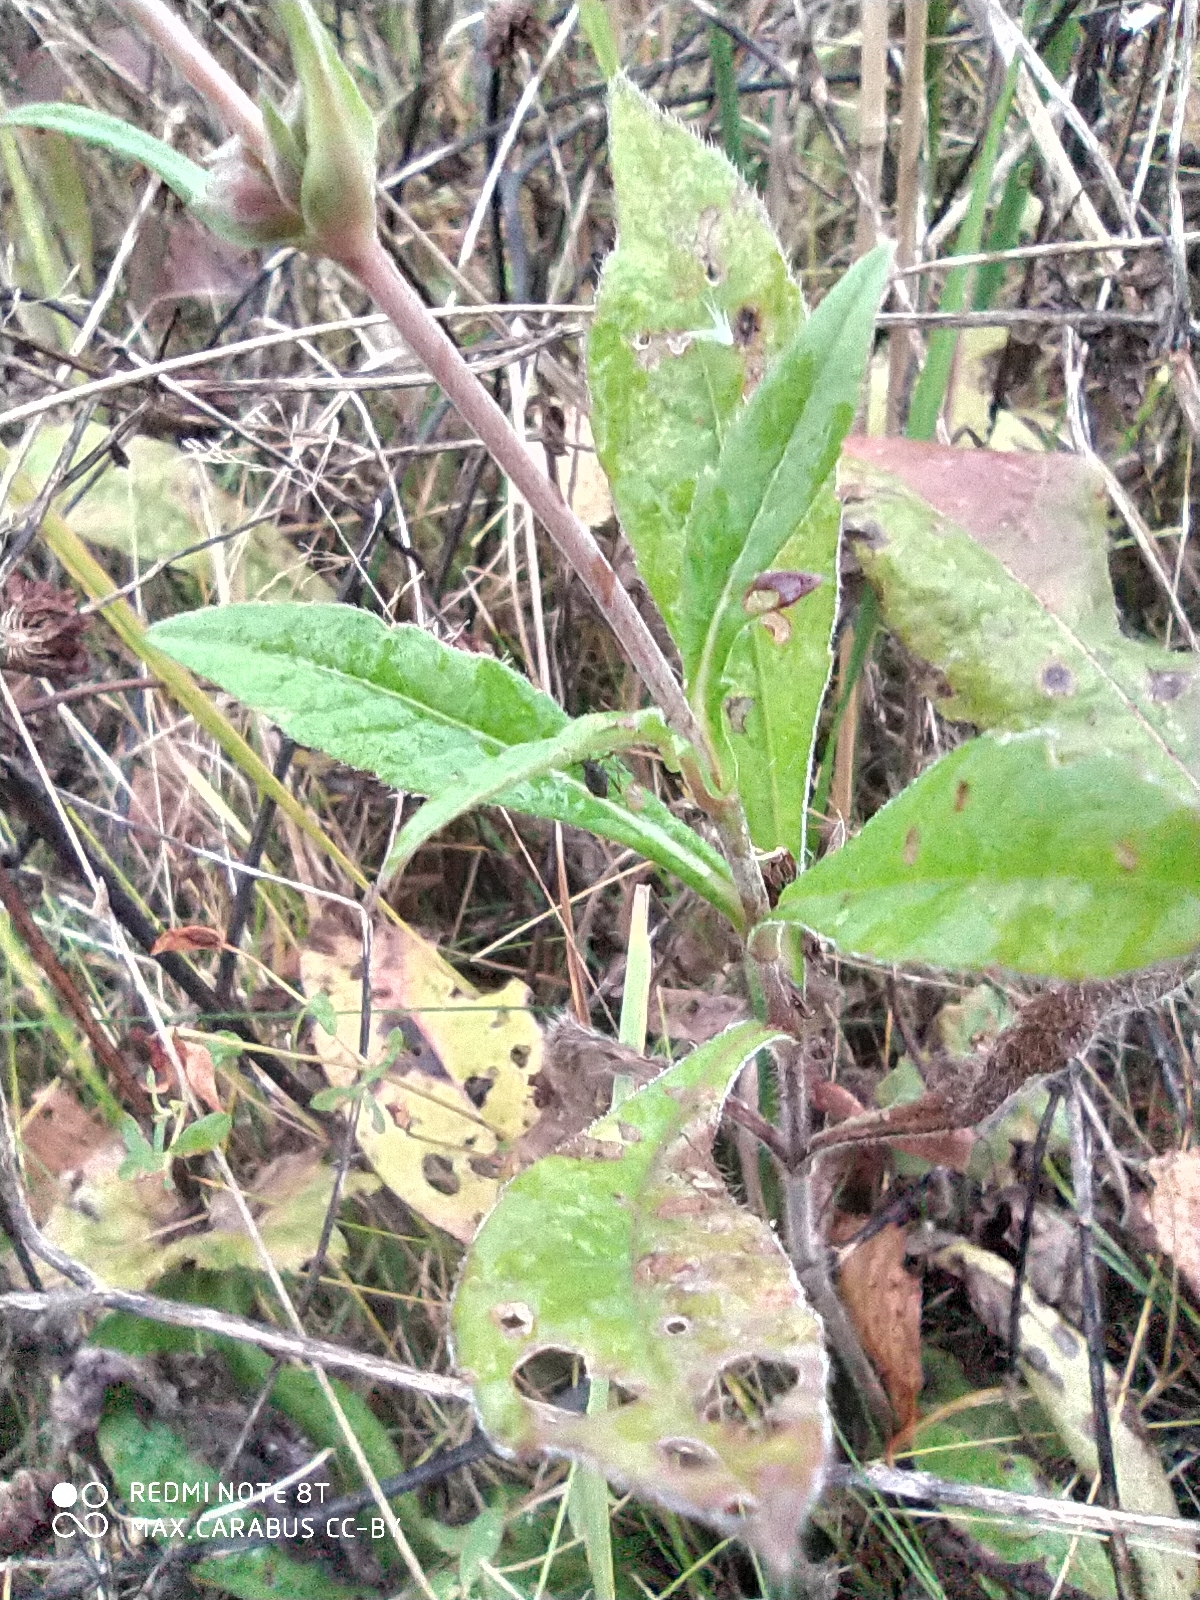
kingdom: Plantae
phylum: Tracheophyta
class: Magnoliopsida
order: Dipsacales
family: Caprifoliaceae
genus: Knautia
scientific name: Knautia arvensis
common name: Field scabiosa
